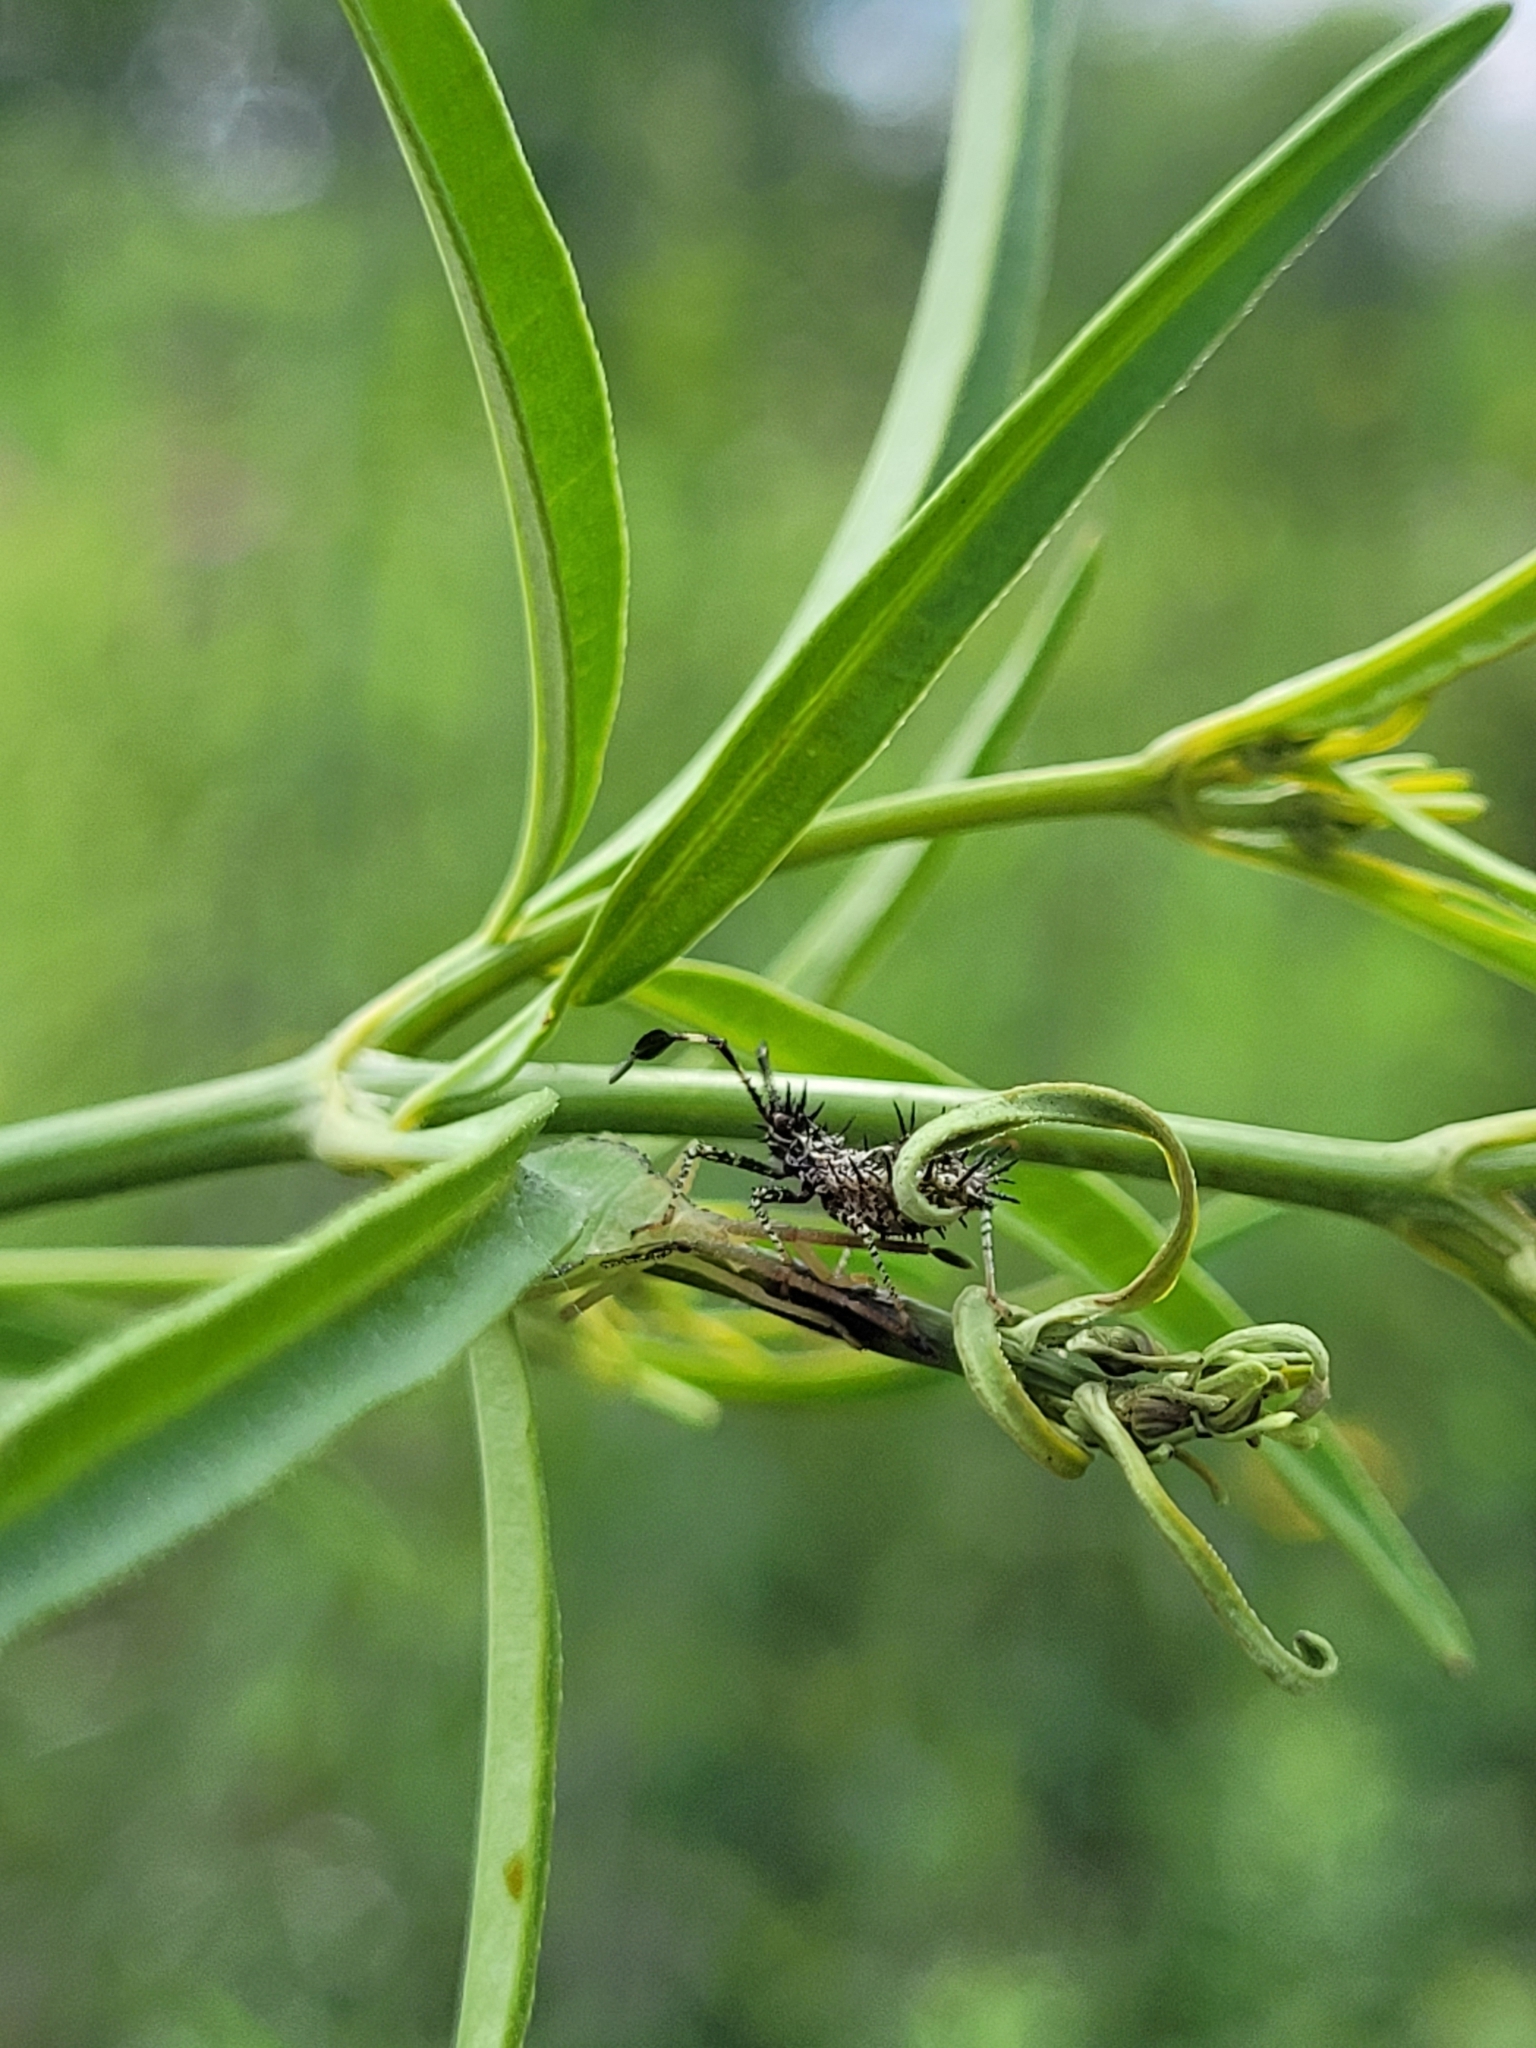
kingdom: Animalia
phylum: Arthropoda
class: Insecta
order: Hemiptera
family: Coreidae
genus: Euthochtha
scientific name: Euthochtha galeator
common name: Helmeted squash bug
